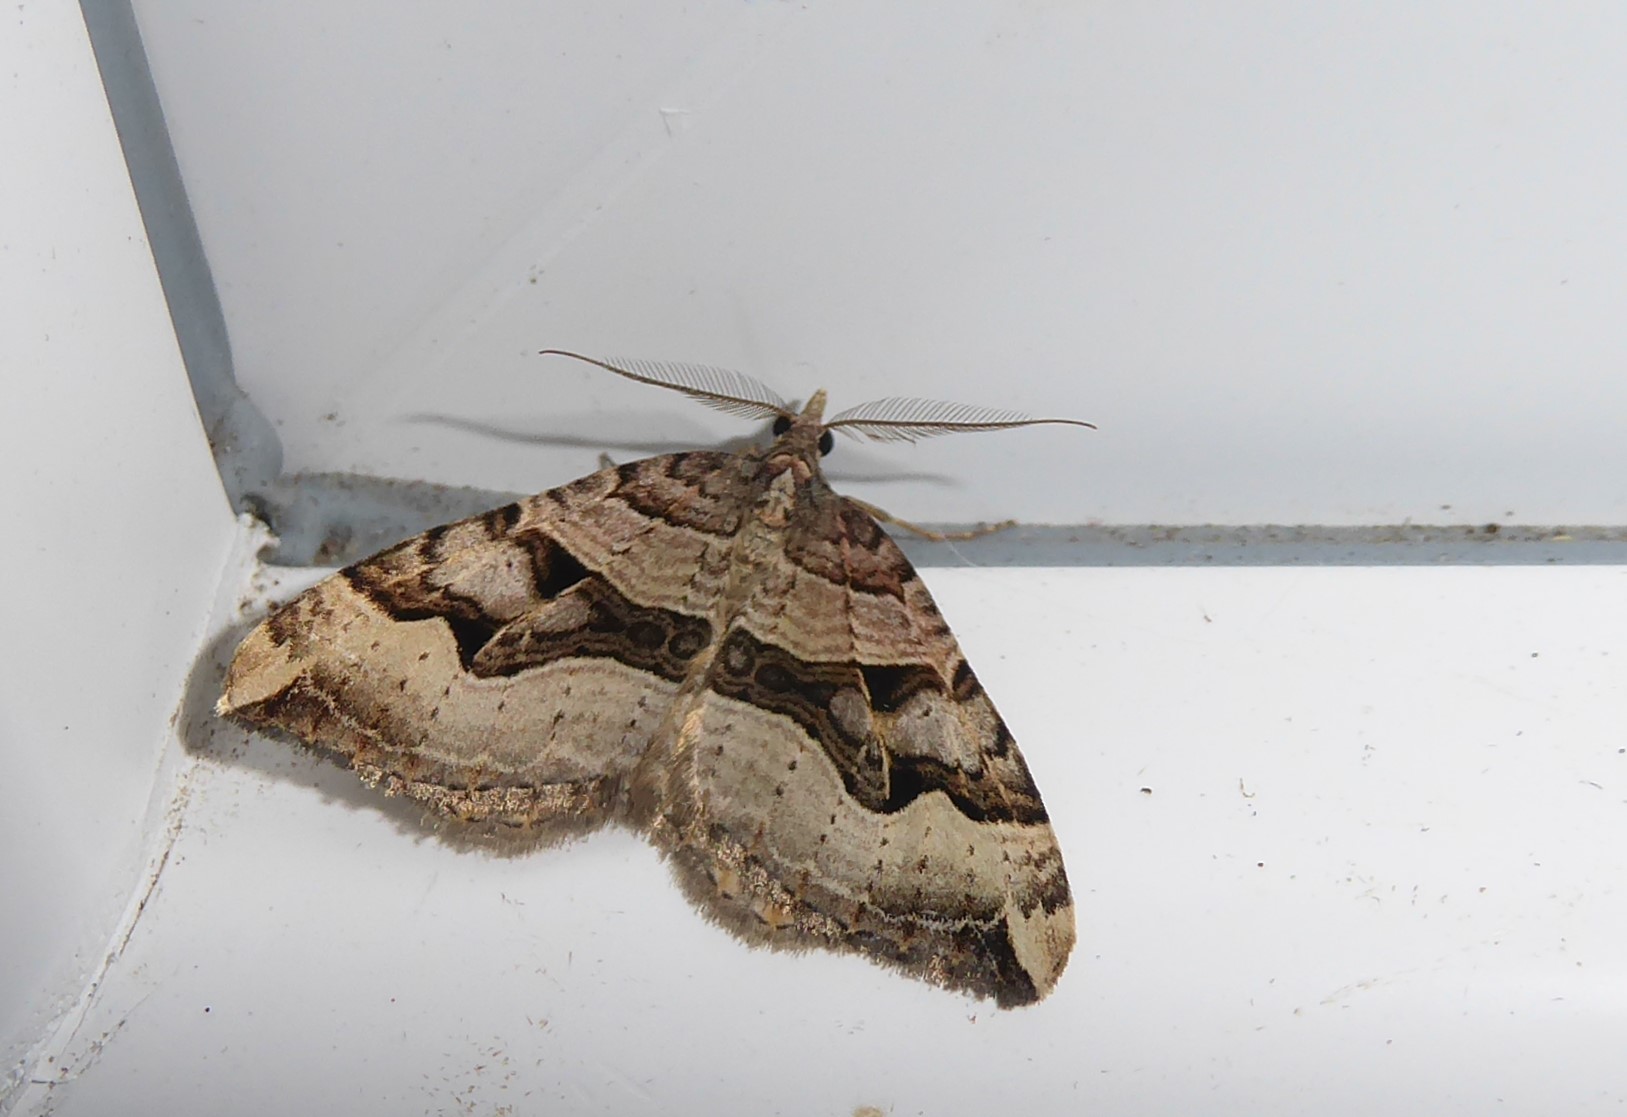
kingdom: Animalia
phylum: Arthropoda
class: Insecta
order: Lepidoptera
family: Geometridae
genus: Xanthorhoe
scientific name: Xanthorhoe semifissata
